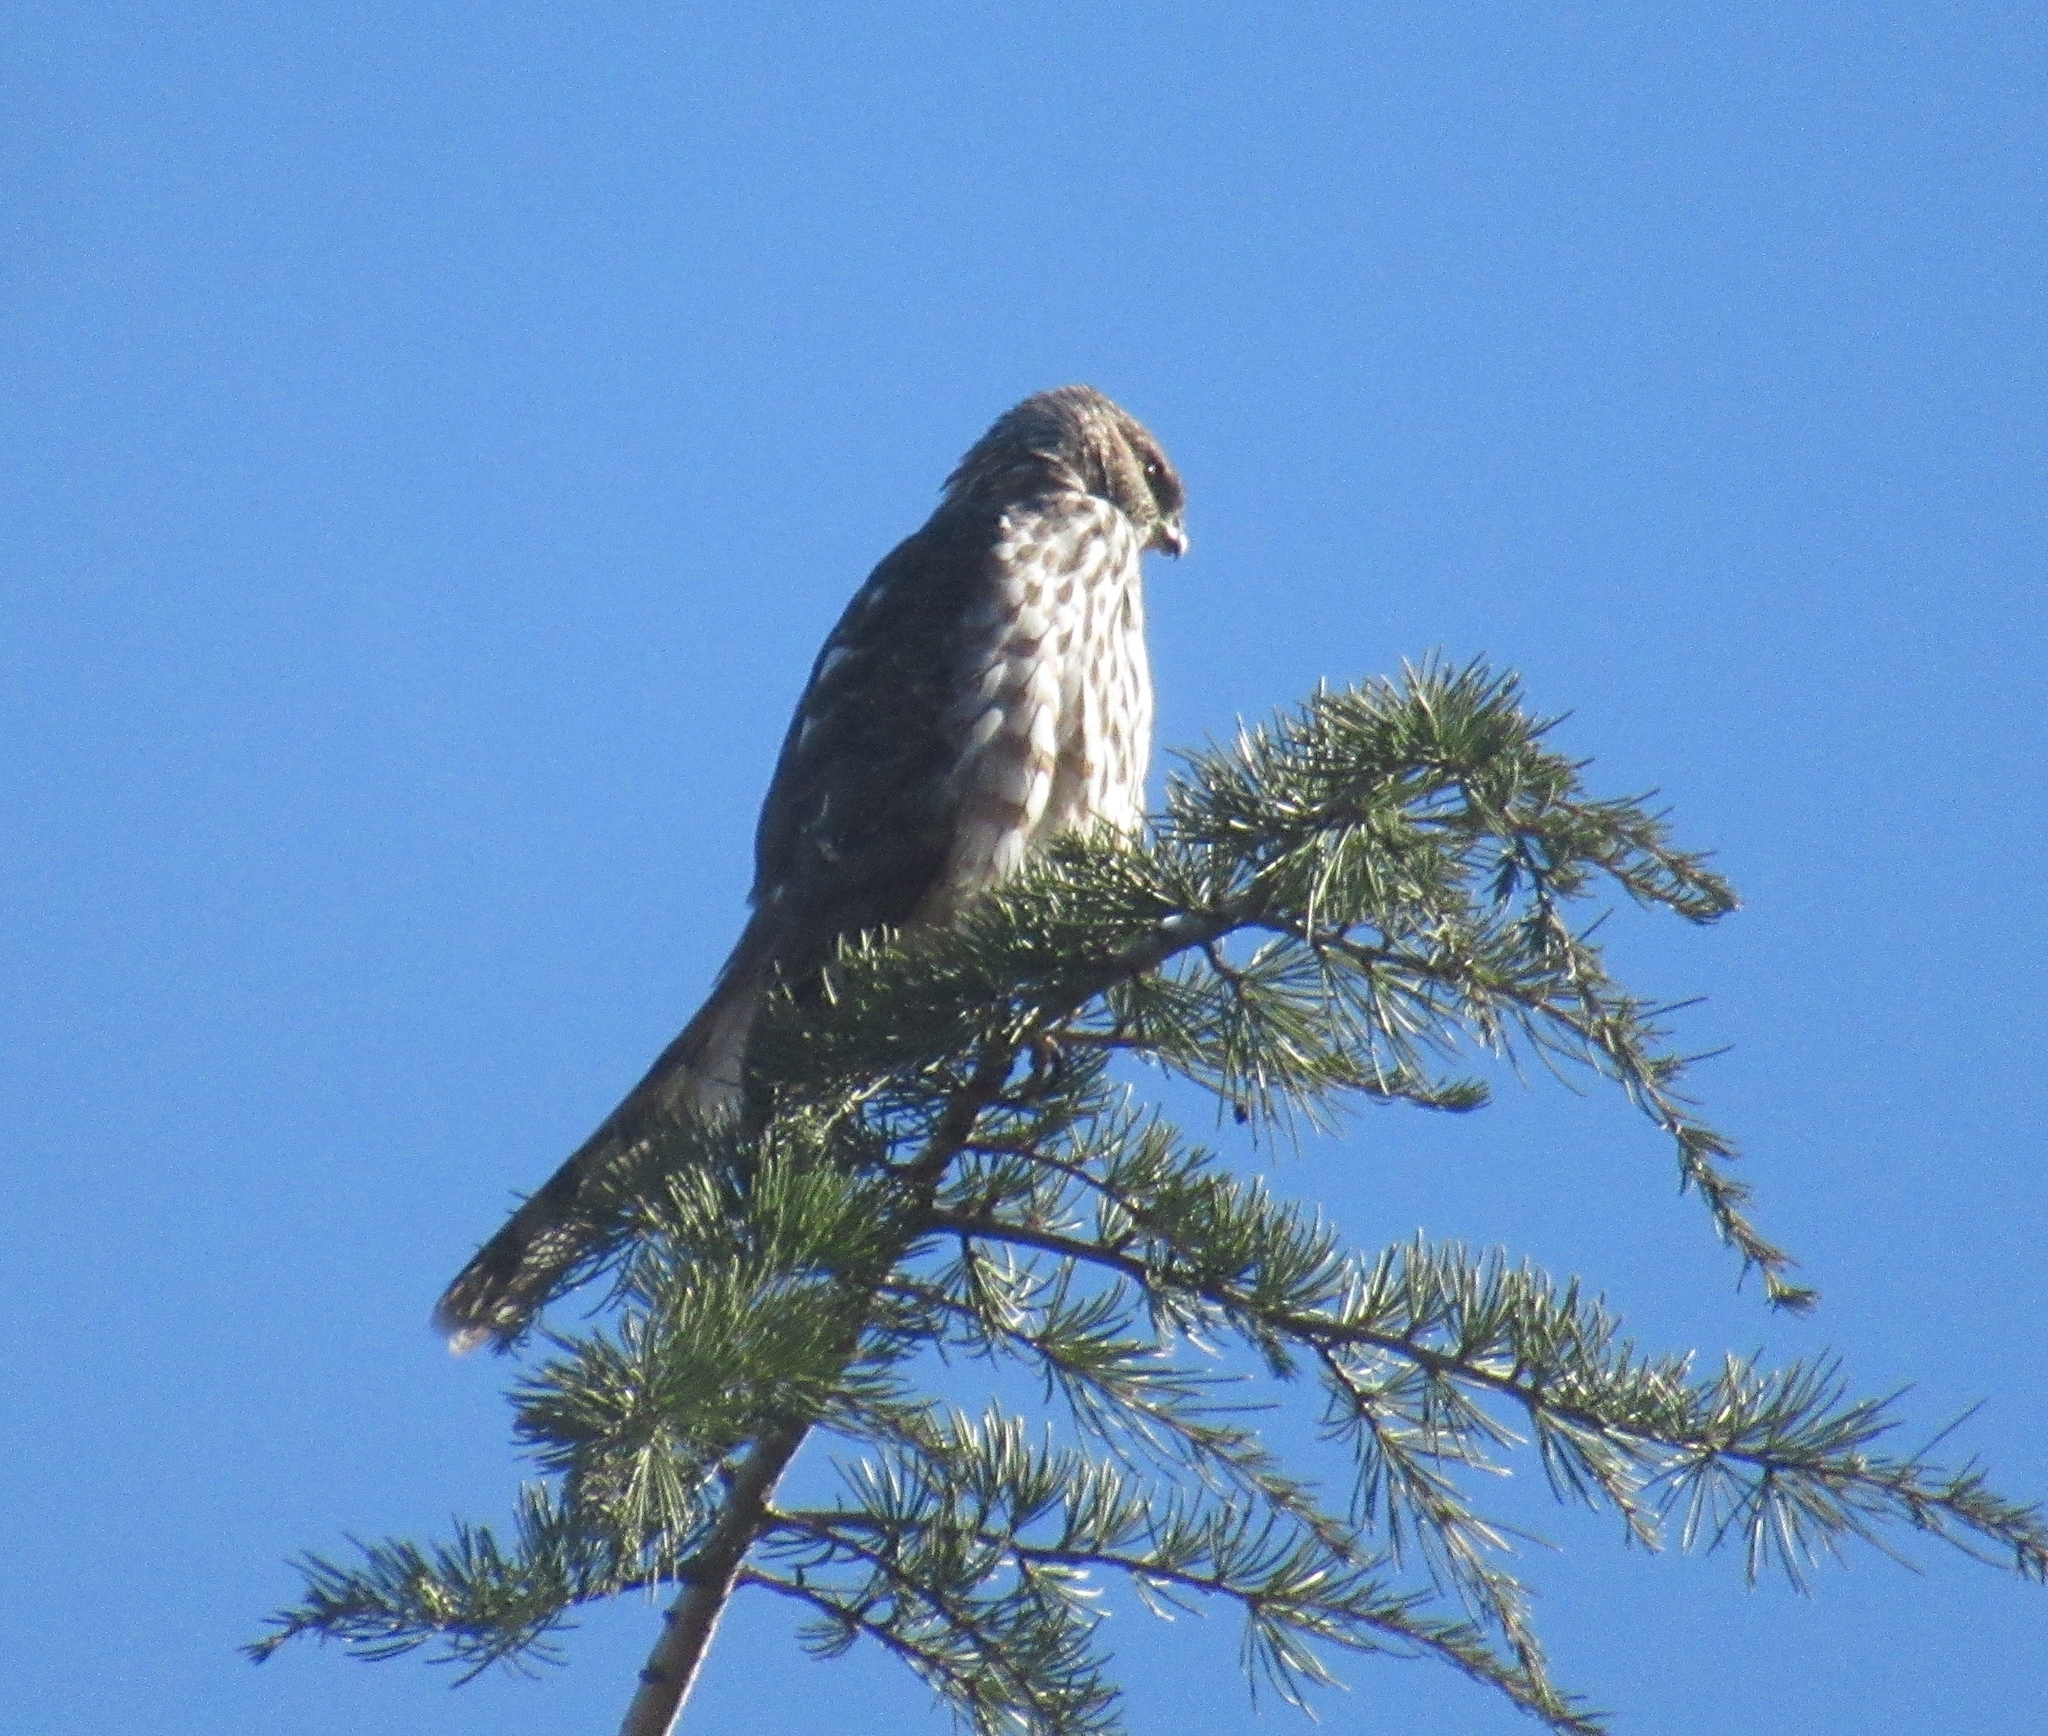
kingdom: Animalia
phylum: Chordata
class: Aves
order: Accipitriformes
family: Accipitridae
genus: Accipiter
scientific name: Accipiter cooperii
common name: Cooper's hawk
